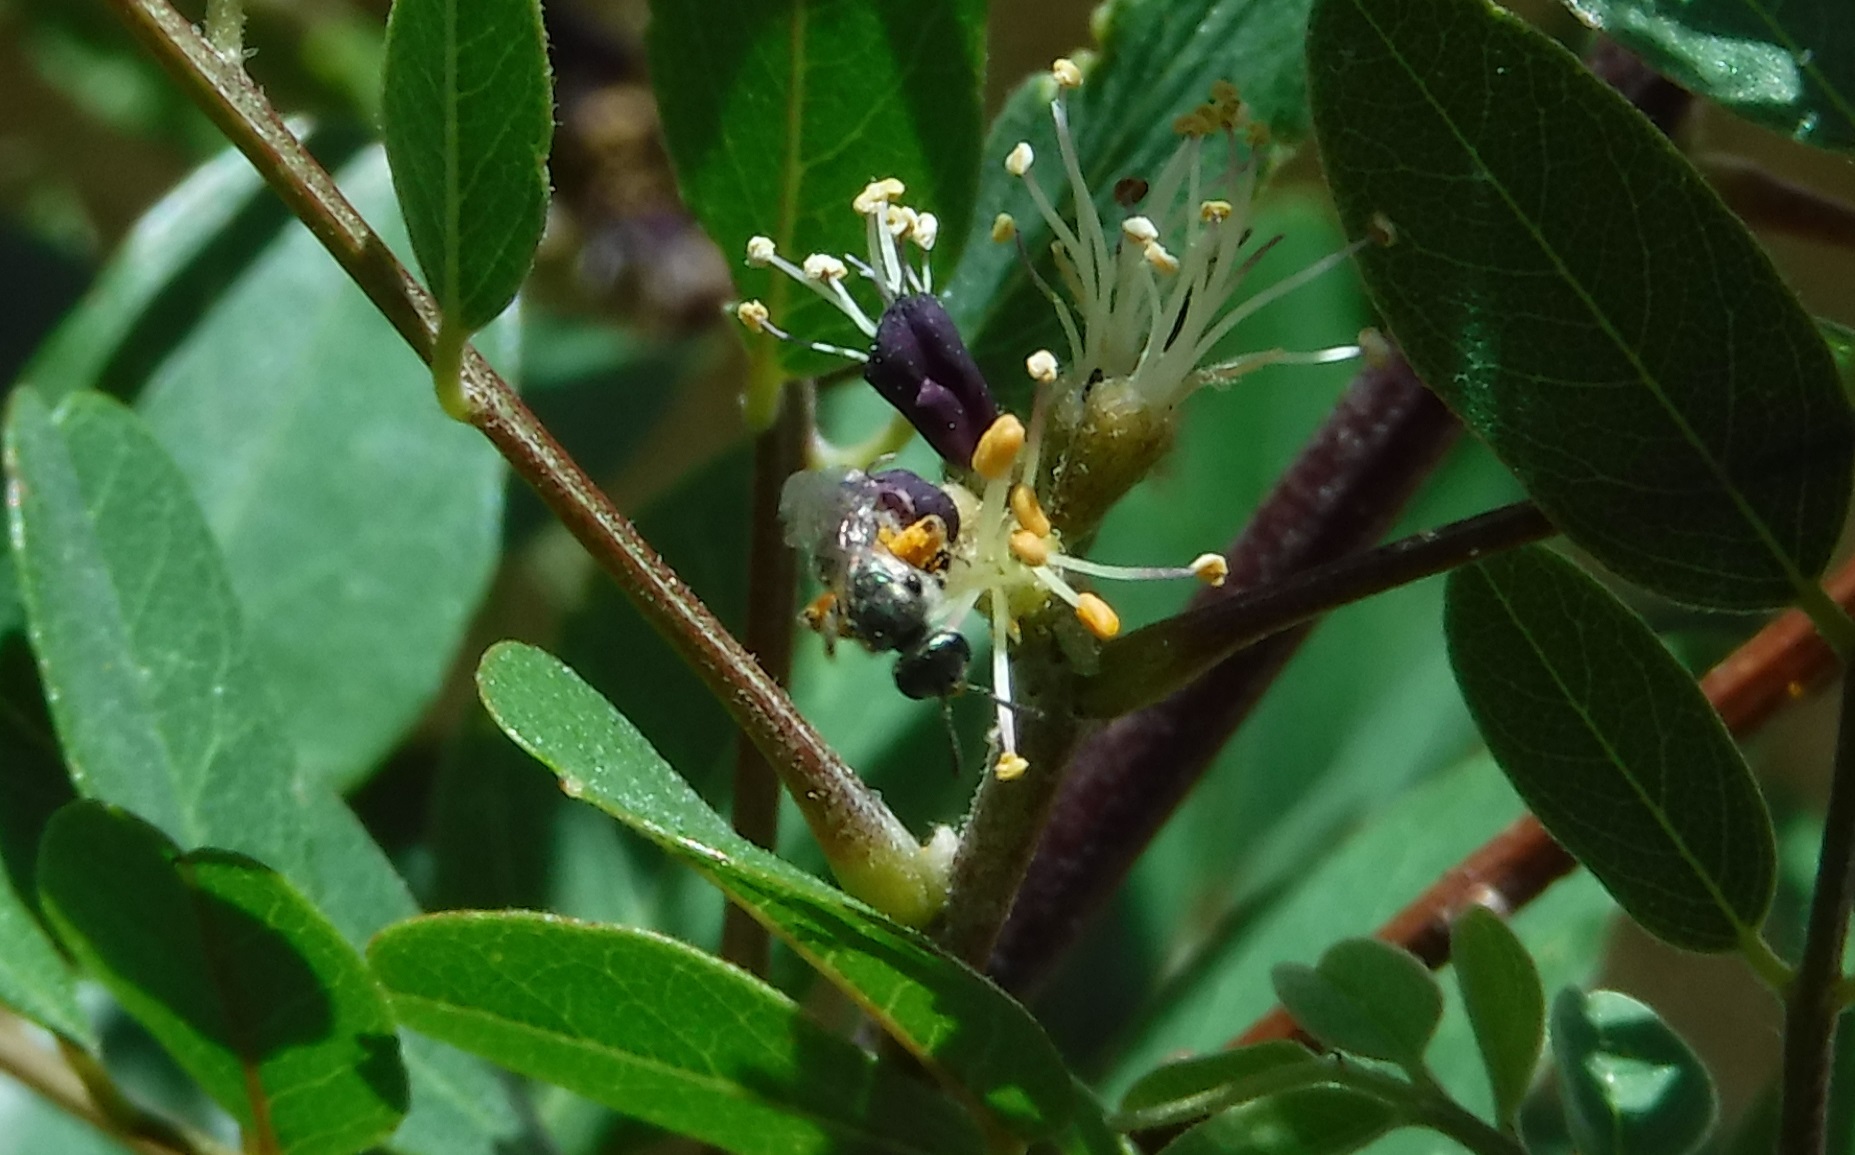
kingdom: Animalia
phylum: Arthropoda
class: Insecta
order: Hymenoptera
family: Halictidae
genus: Dialictus
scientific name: Dialictus
